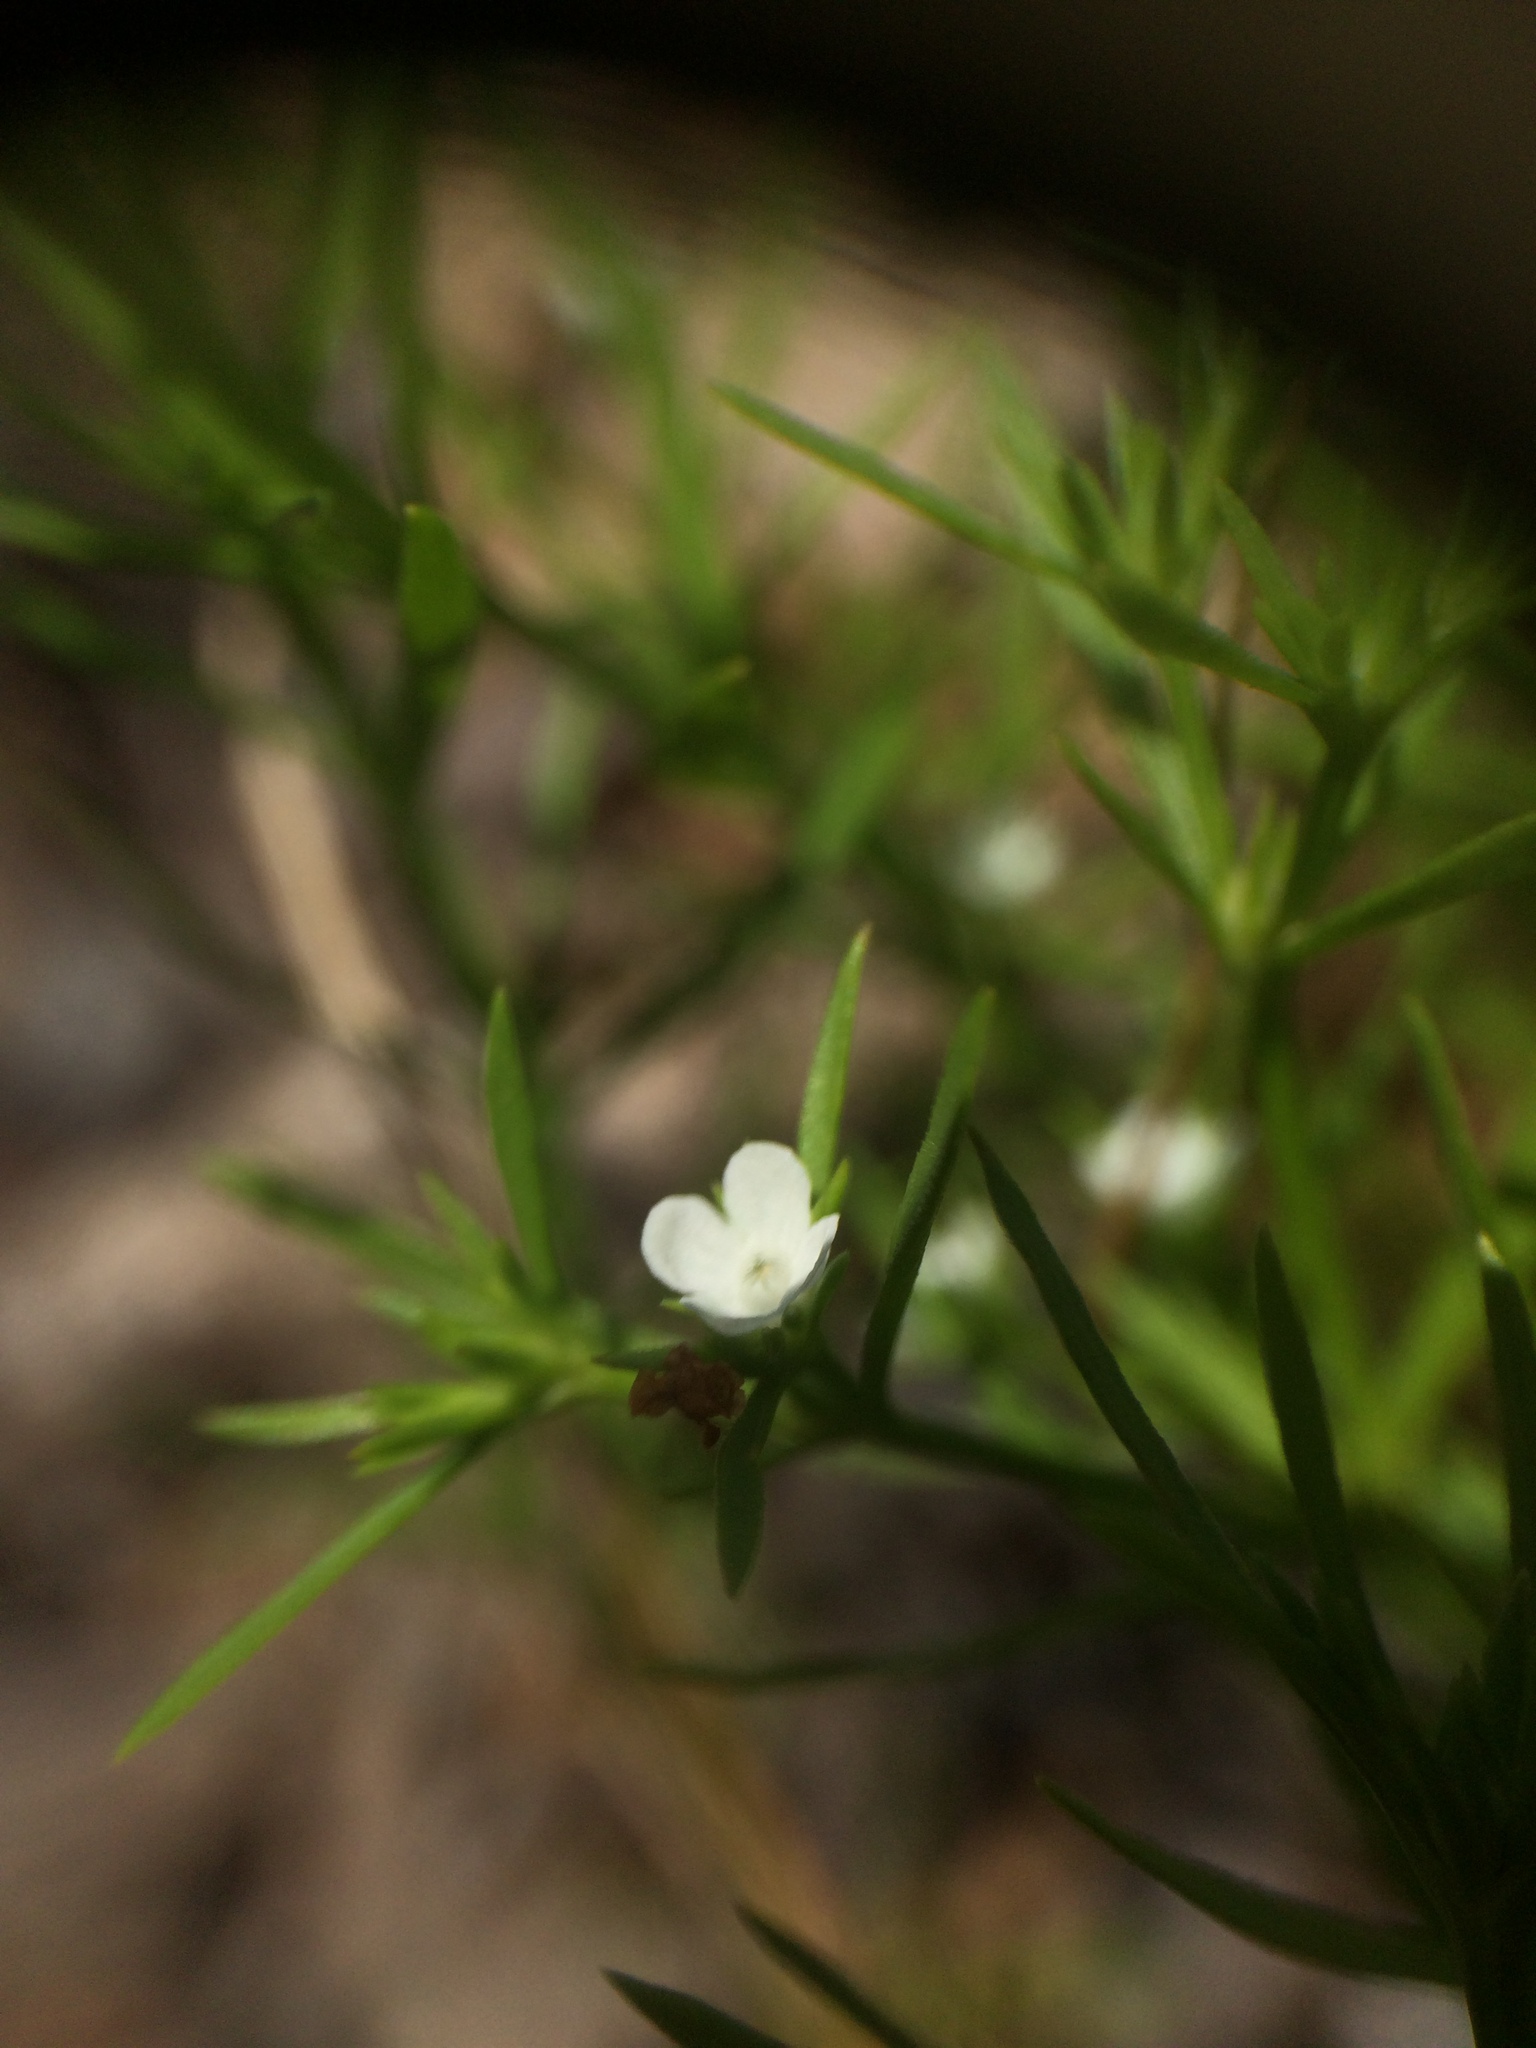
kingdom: Plantae
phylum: Tracheophyta
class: Magnoliopsida
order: Lamiales
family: Tetrachondraceae
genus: Polypremum
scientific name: Polypremum procumbens
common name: Juniper-leaf
